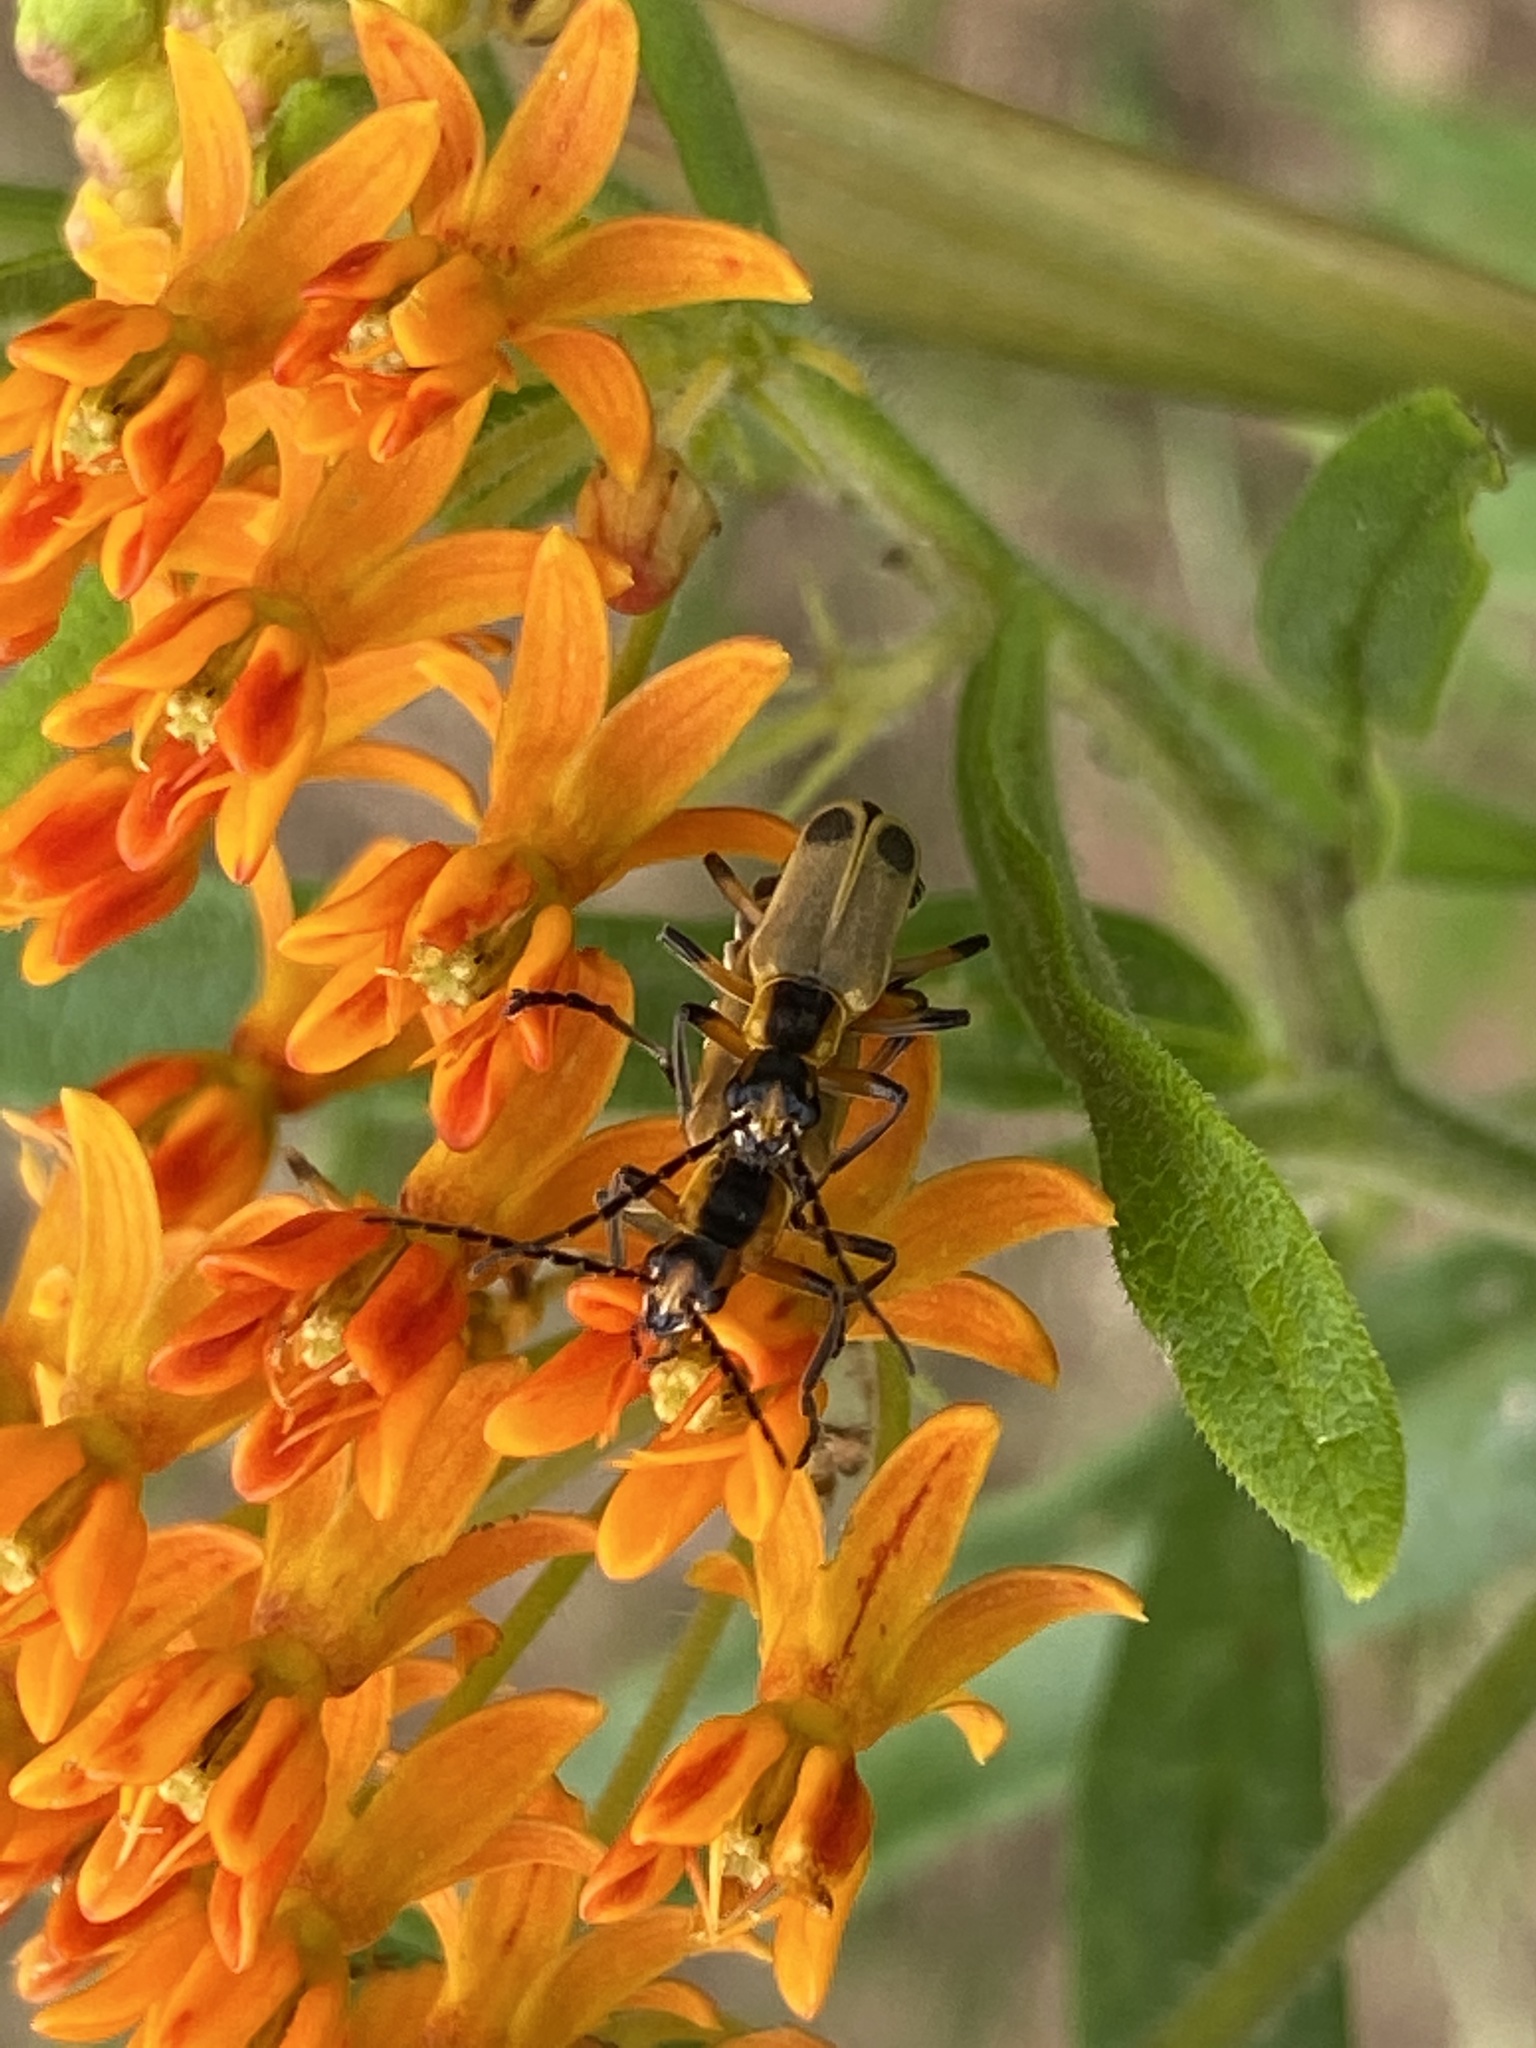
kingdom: Animalia
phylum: Arthropoda
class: Insecta
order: Coleoptera
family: Cantharidae
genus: Chauliognathus
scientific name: Chauliognathus marginatus
